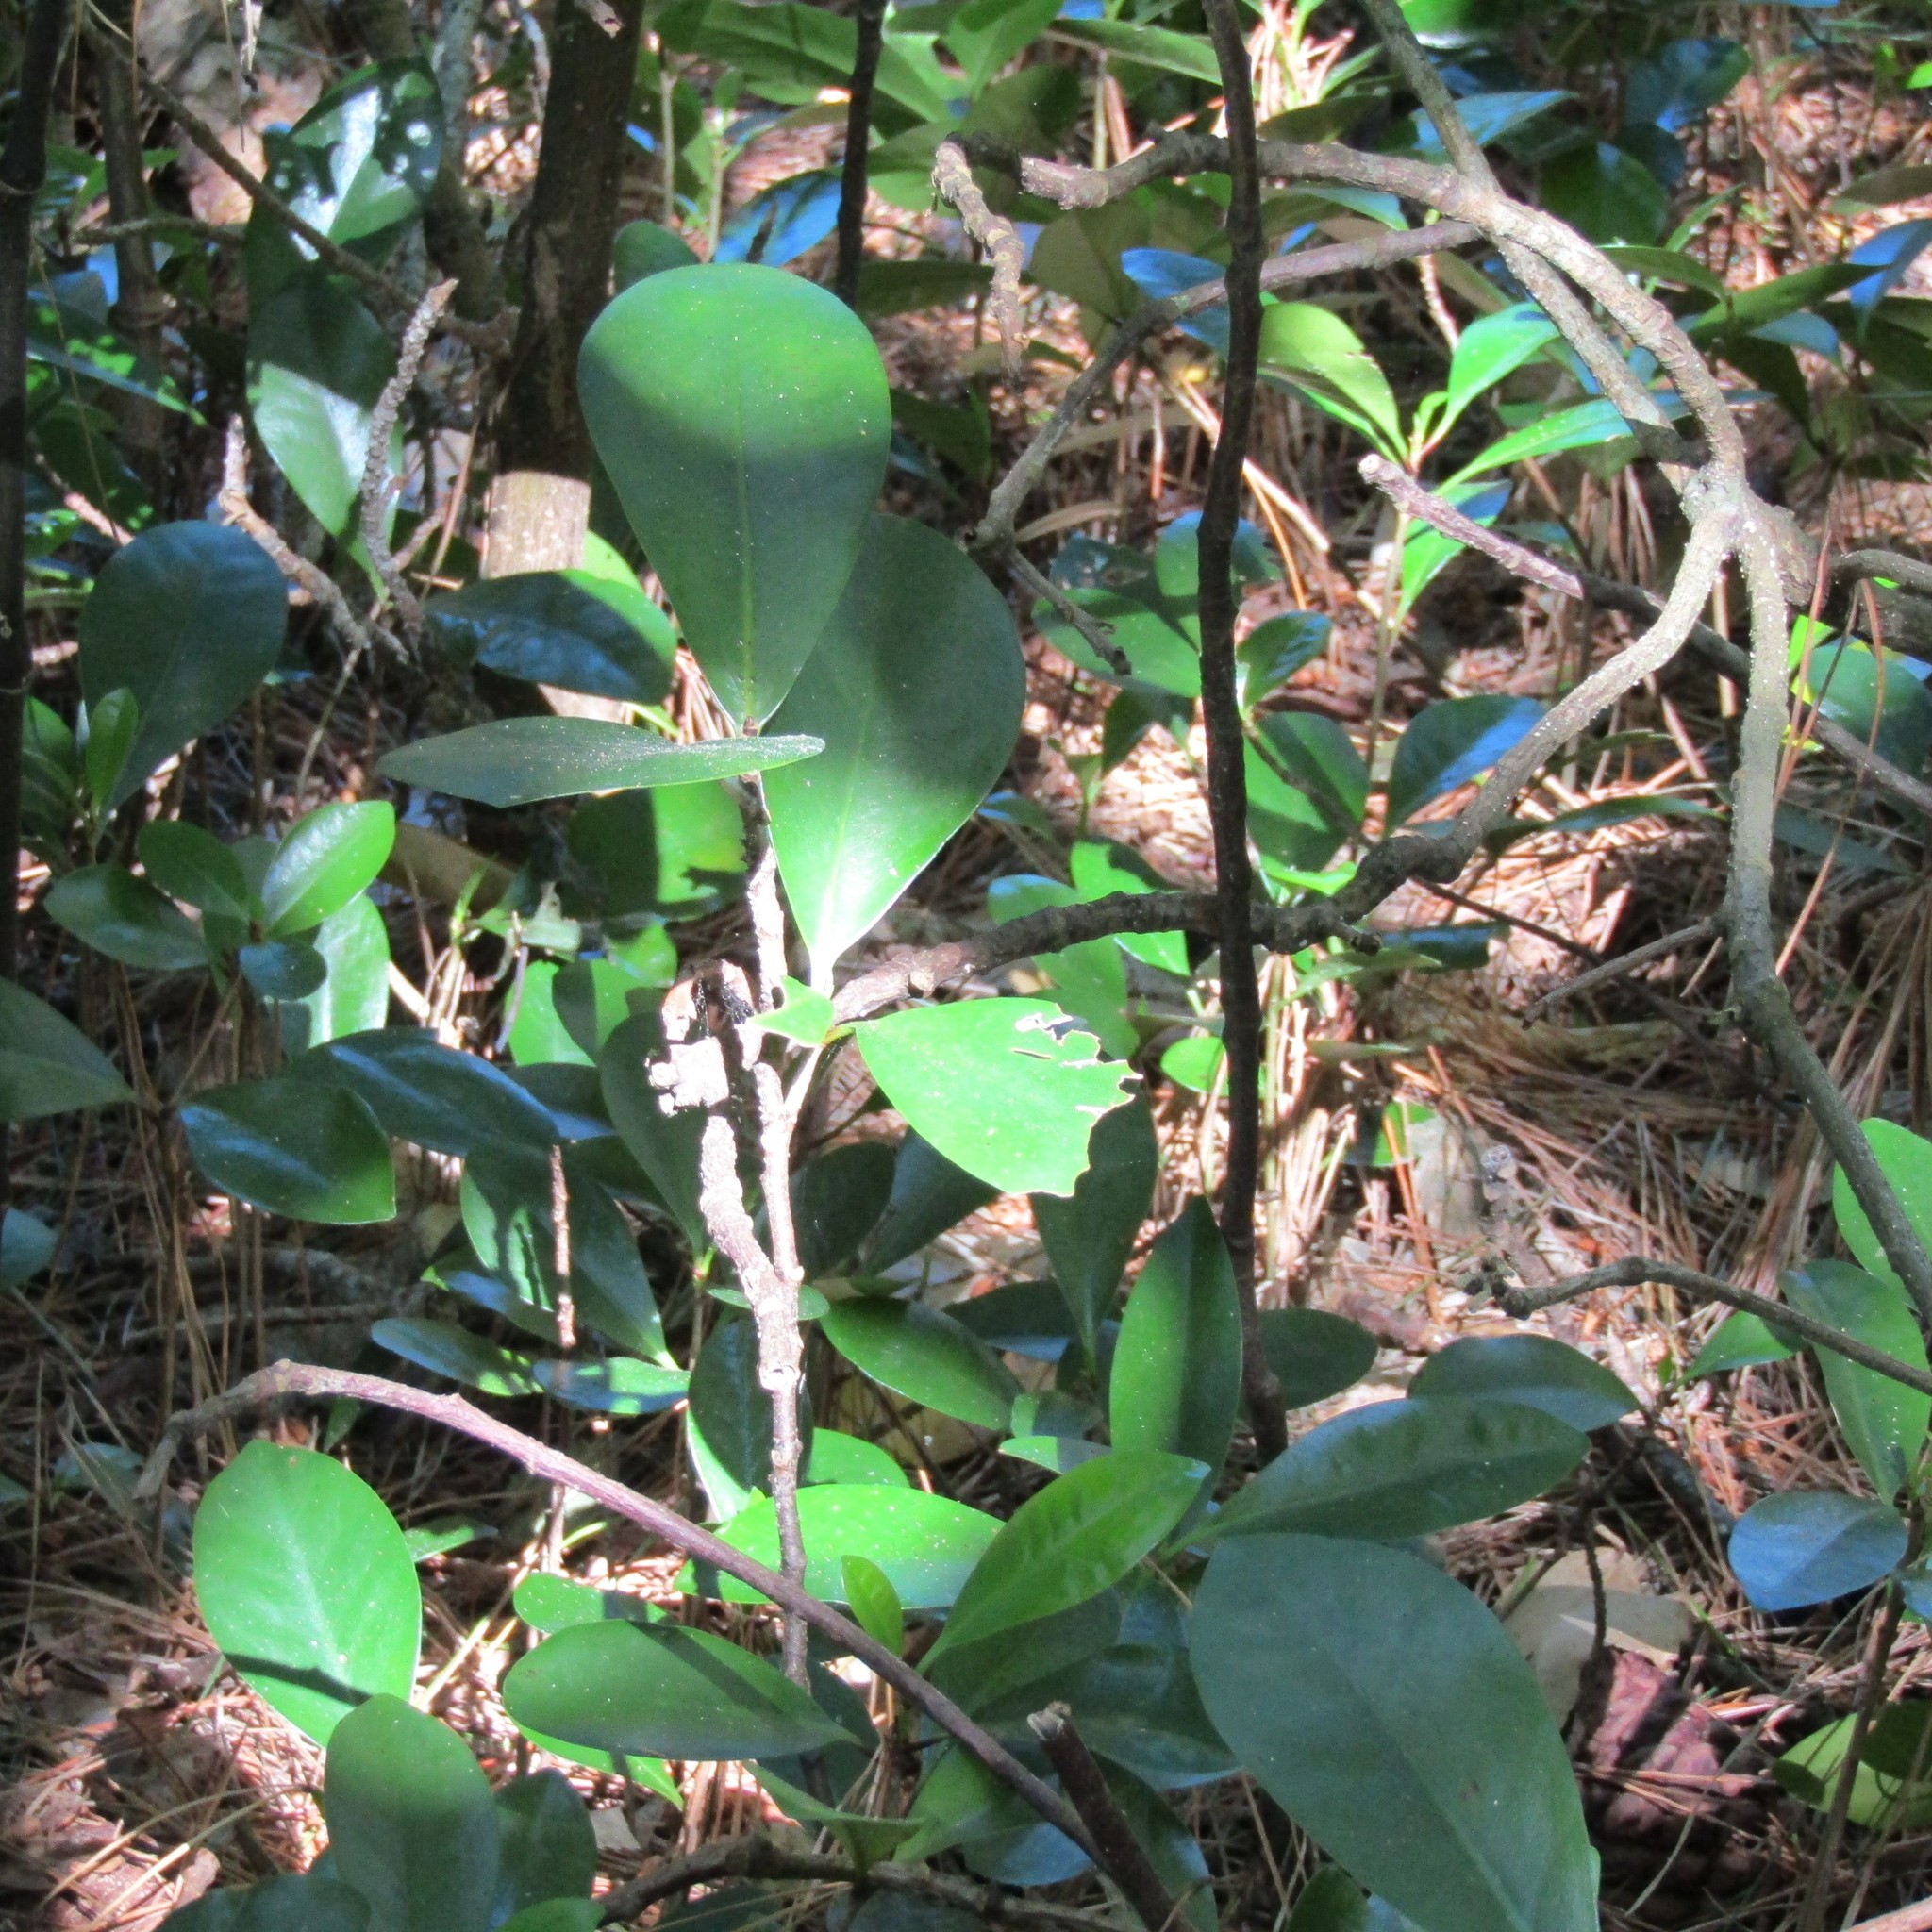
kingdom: Plantae
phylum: Tracheophyta
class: Magnoliopsida
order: Cucurbitales
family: Corynocarpaceae
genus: Corynocarpus
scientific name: Corynocarpus laevigatus
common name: New zealand laurel
